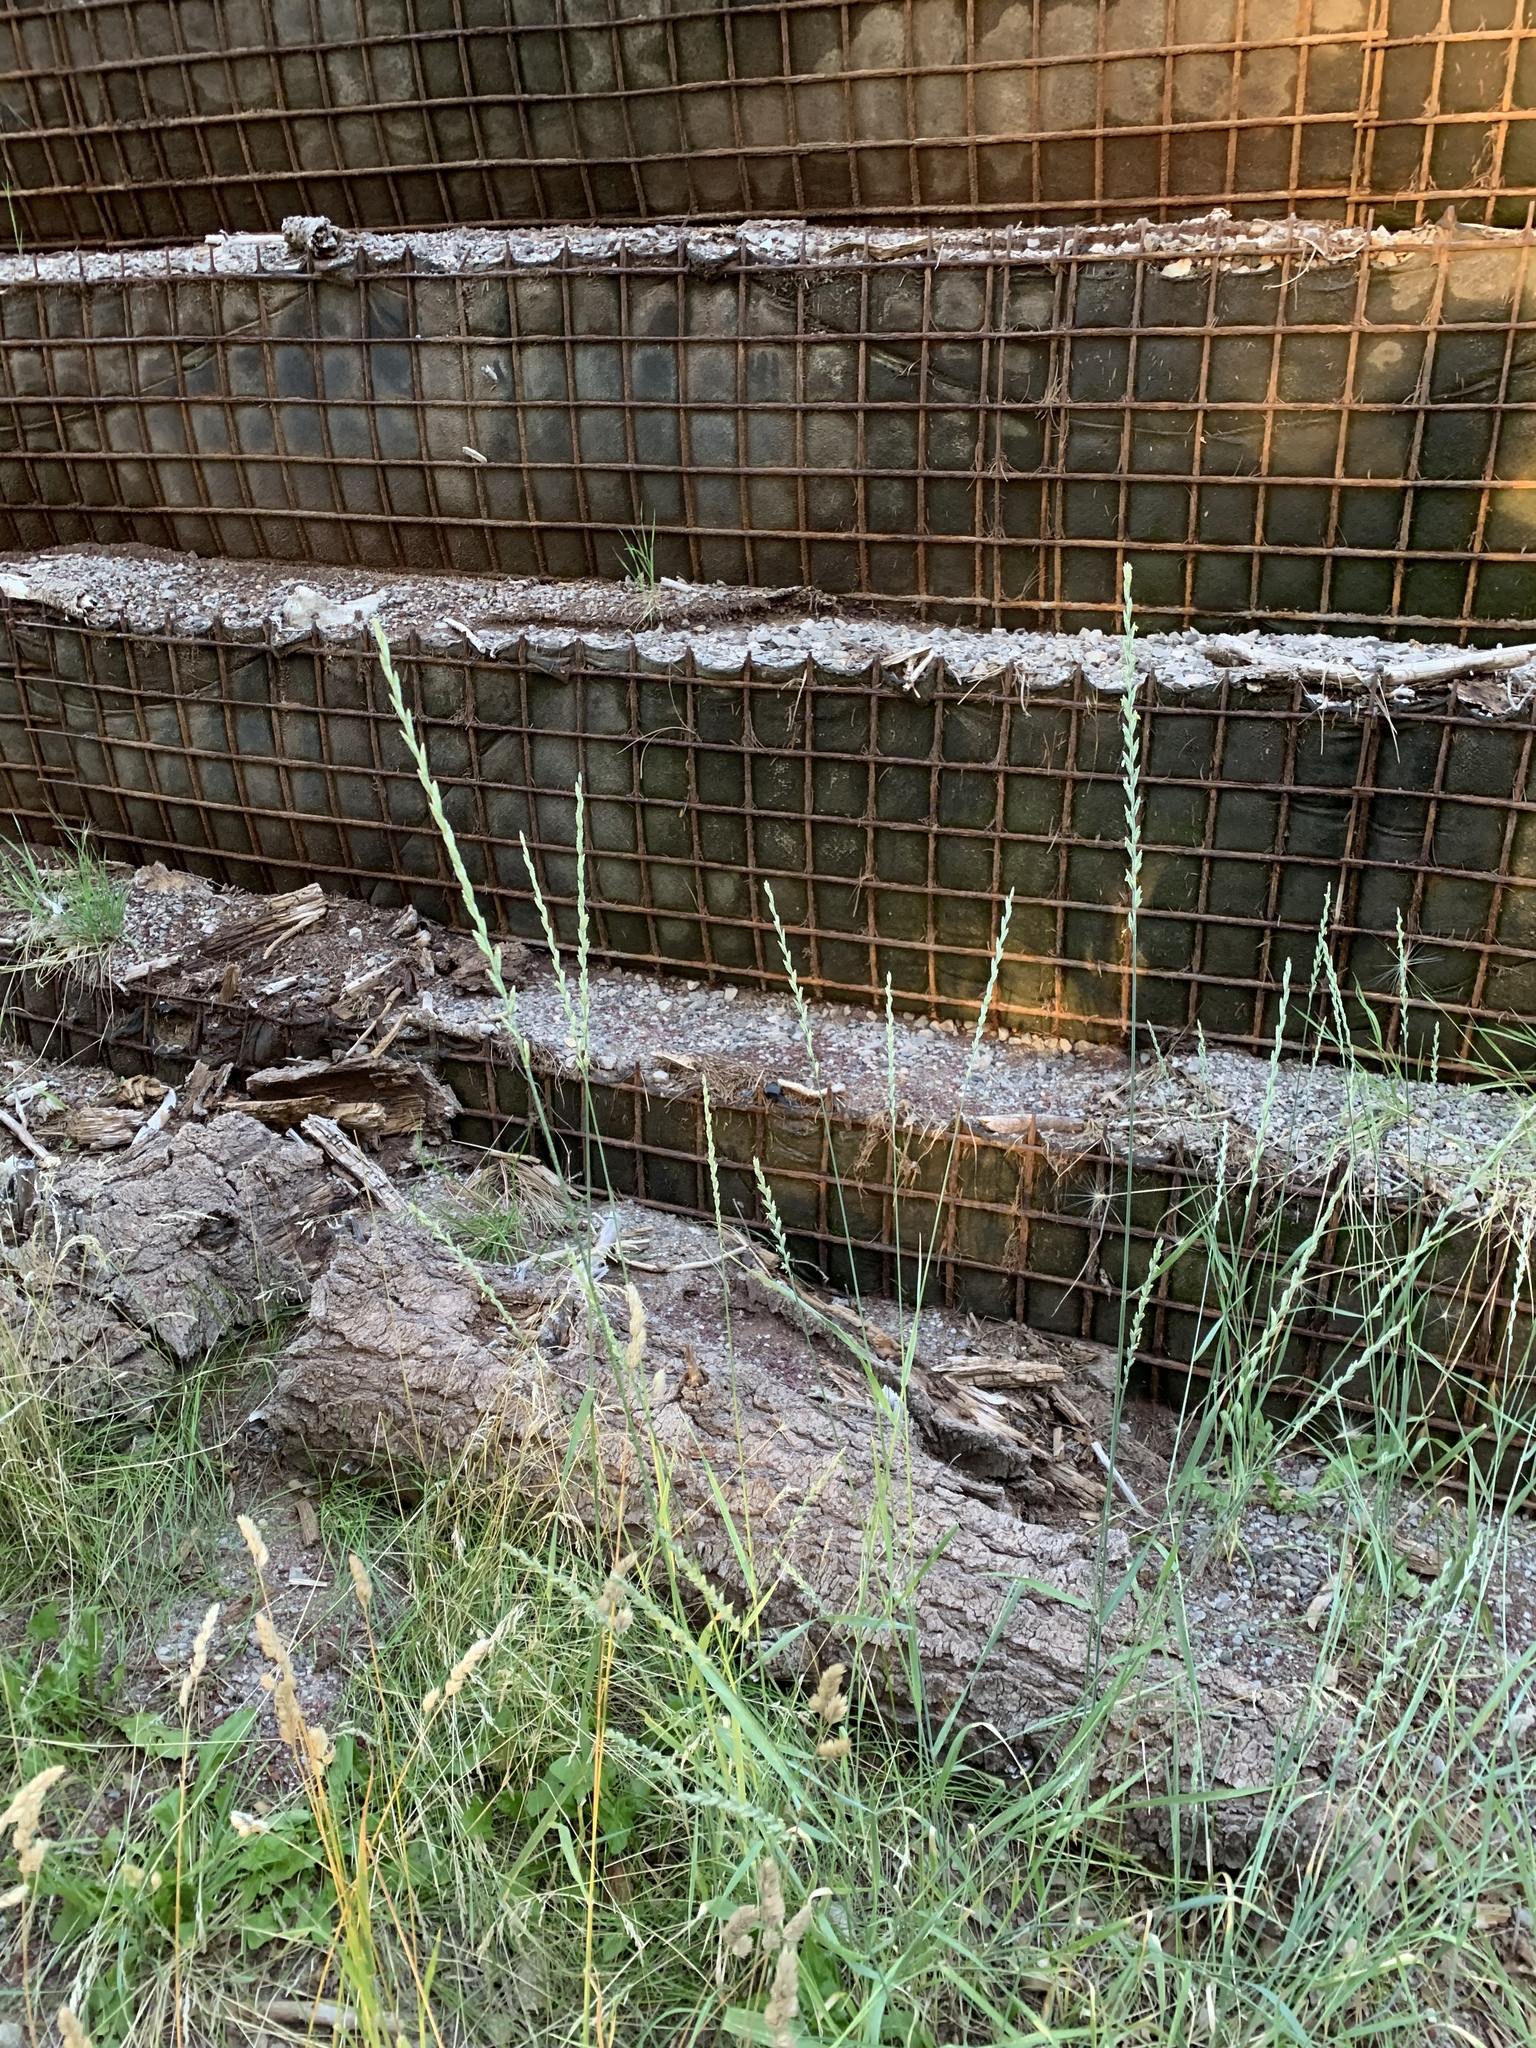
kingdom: Plantae
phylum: Tracheophyta
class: Liliopsida
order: Poales
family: Poaceae
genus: Thinopyrum
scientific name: Thinopyrum intermedium
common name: Intermediate wheatgrass
